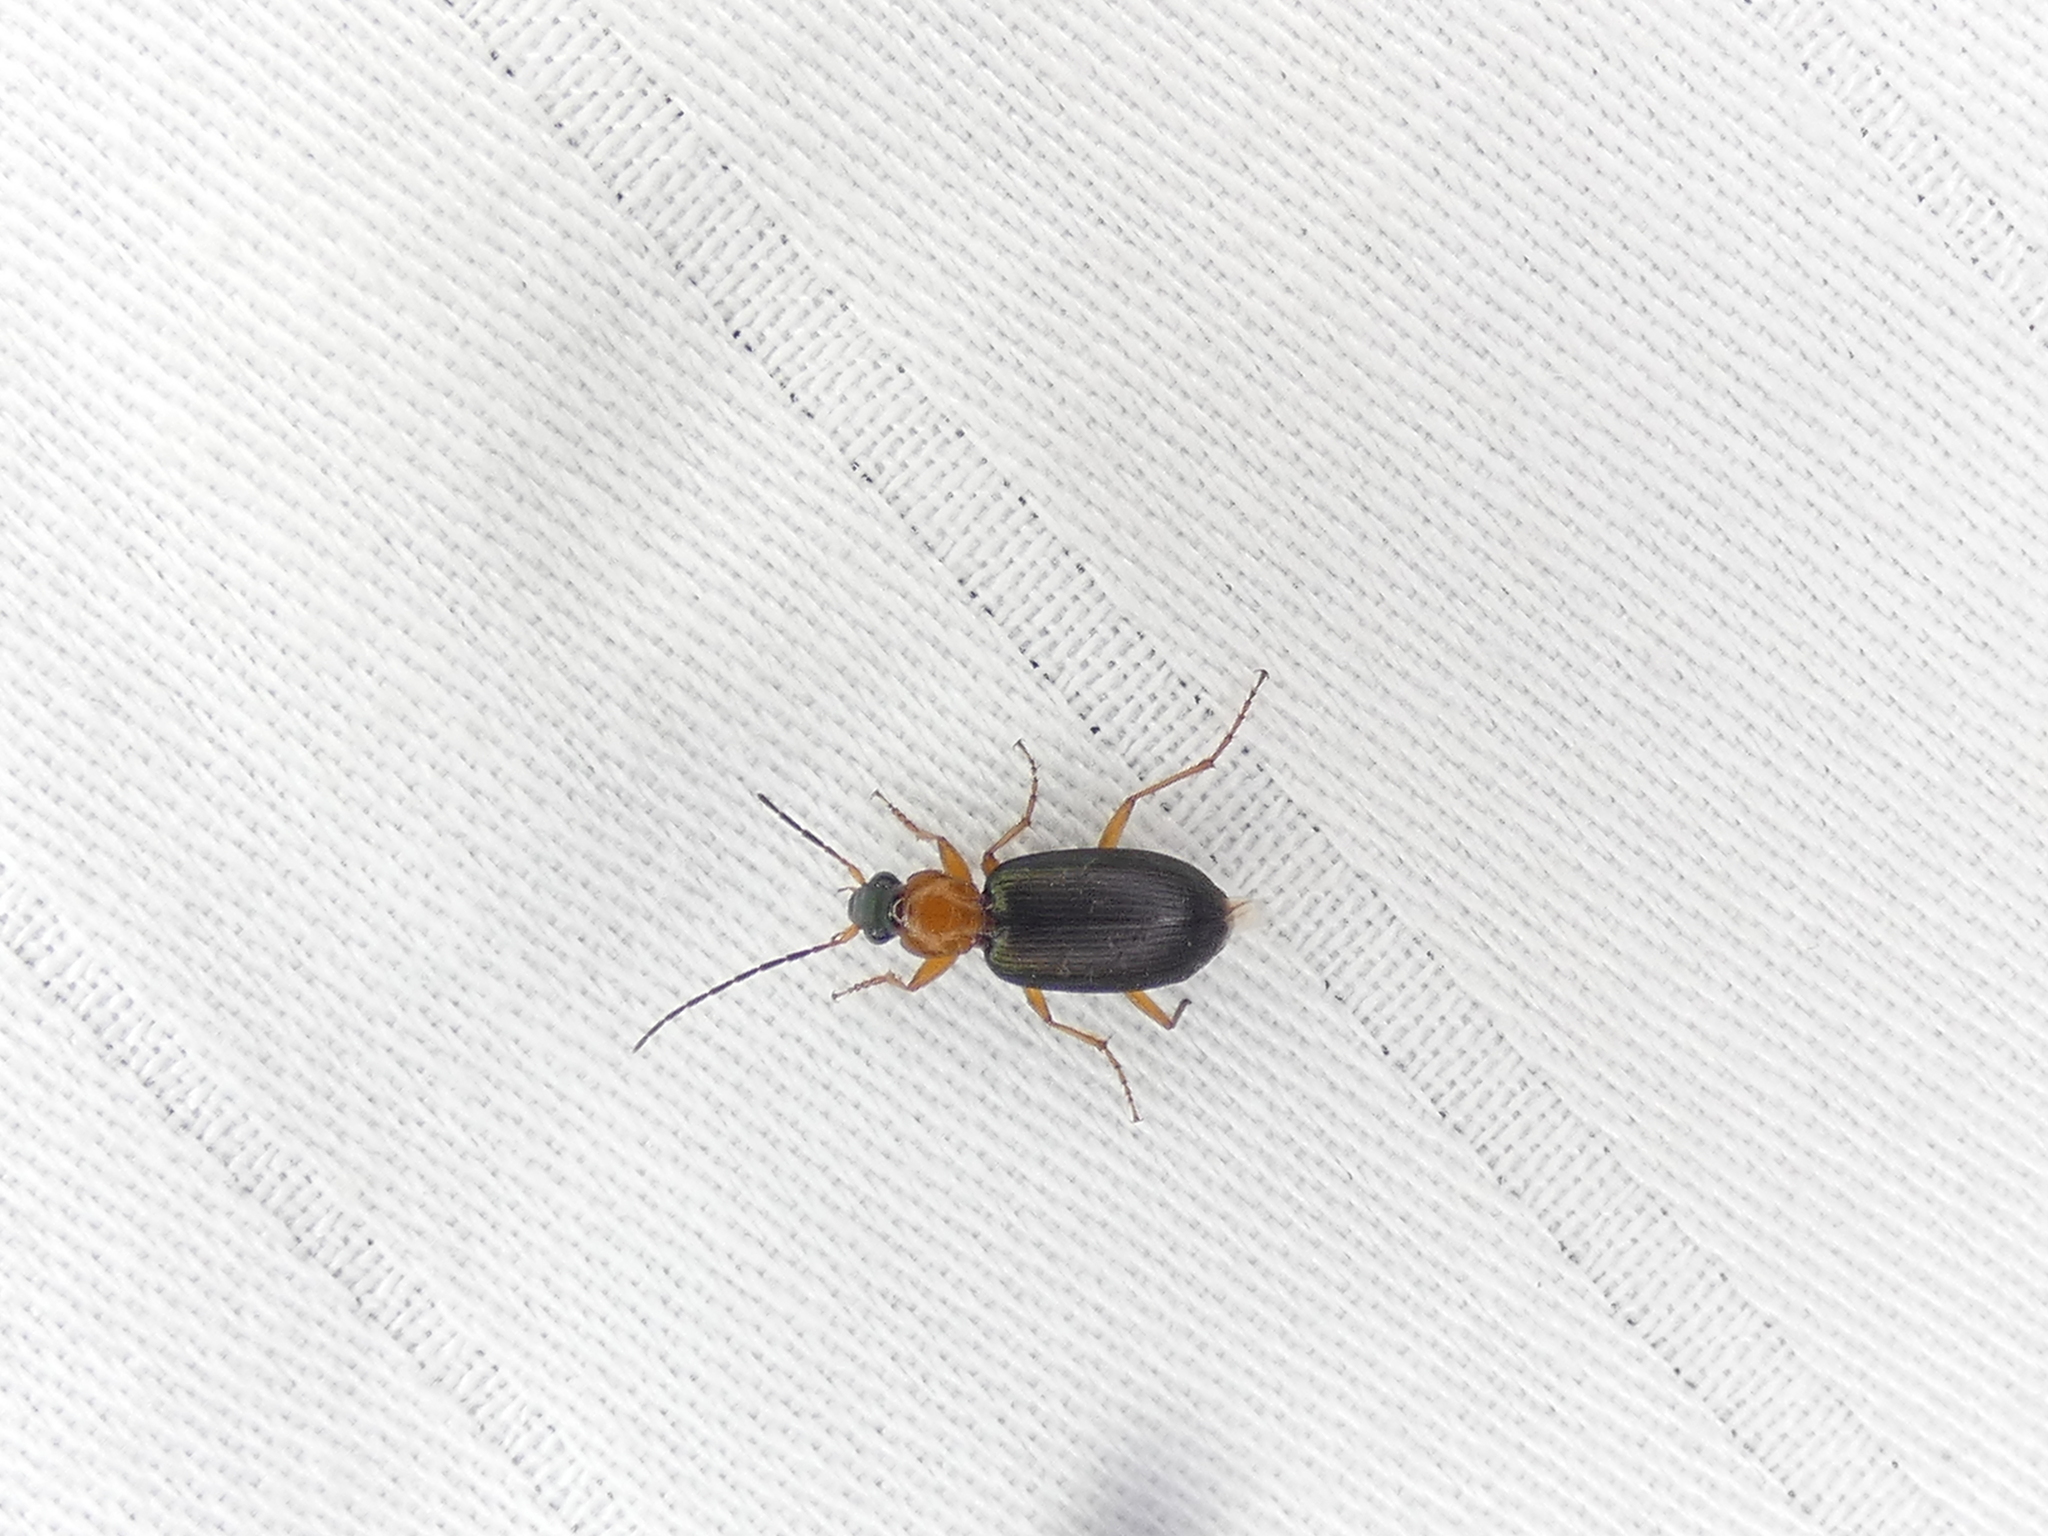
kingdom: Animalia
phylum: Arthropoda
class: Insecta
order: Coleoptera
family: Carabidae
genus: Agonum
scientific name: Agonum decorum
